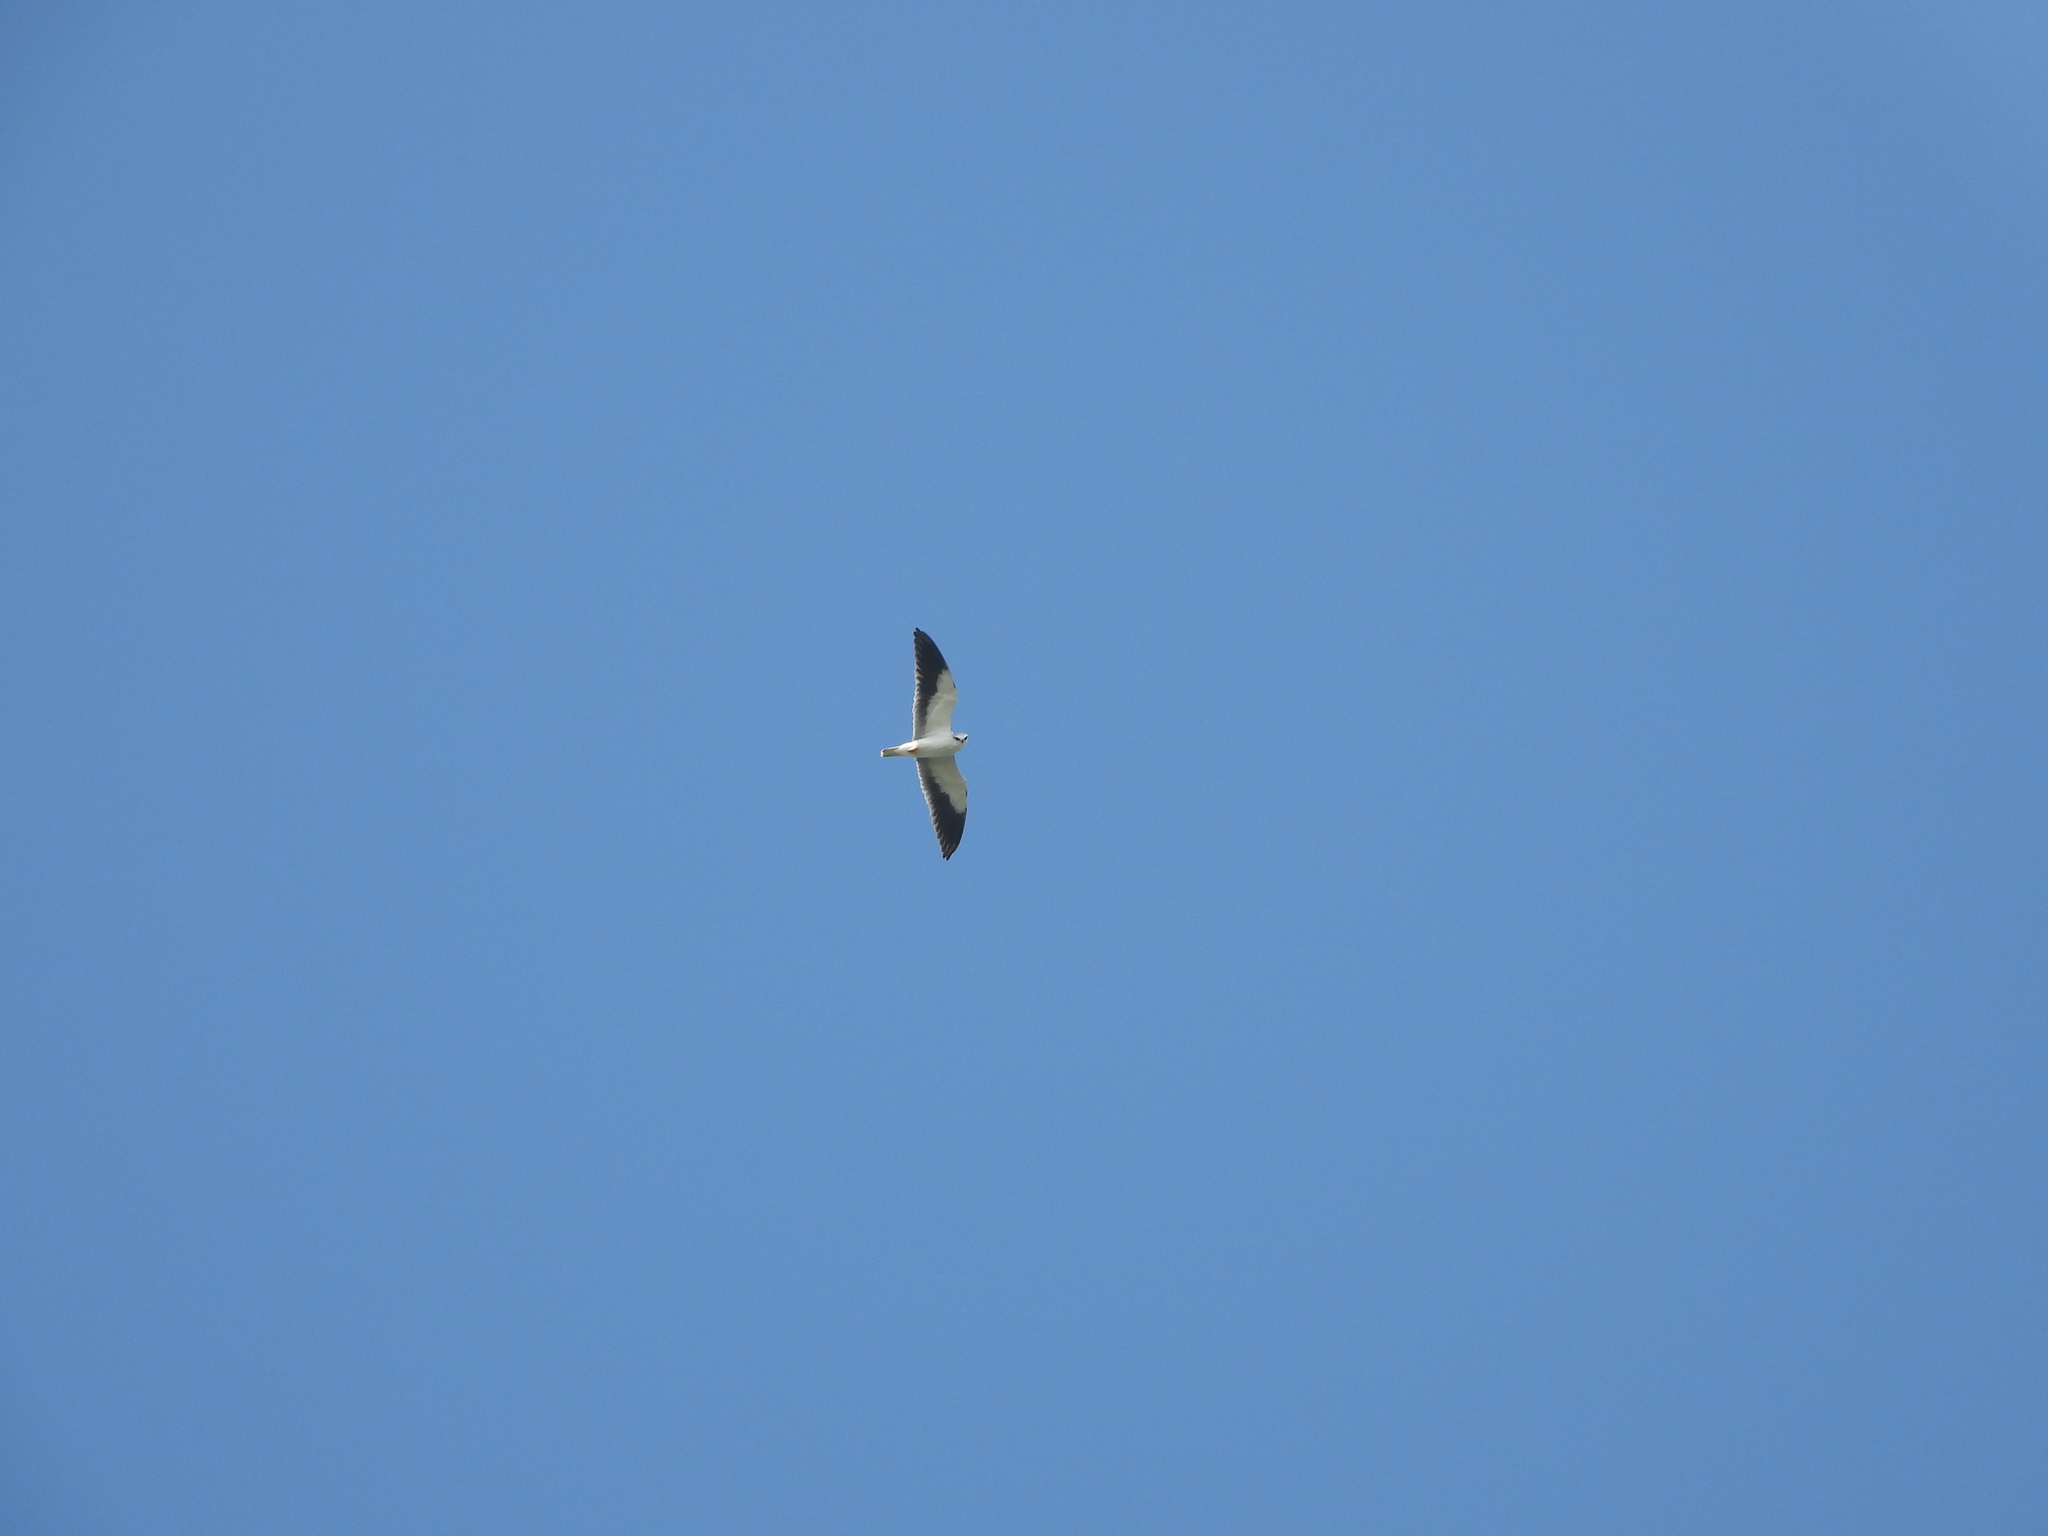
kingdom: Animalia
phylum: Chordata
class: Aves
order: Accipitriformes
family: Accipitridae
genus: Elanus
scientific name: Elanus caeruleus
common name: Black-winged kite
